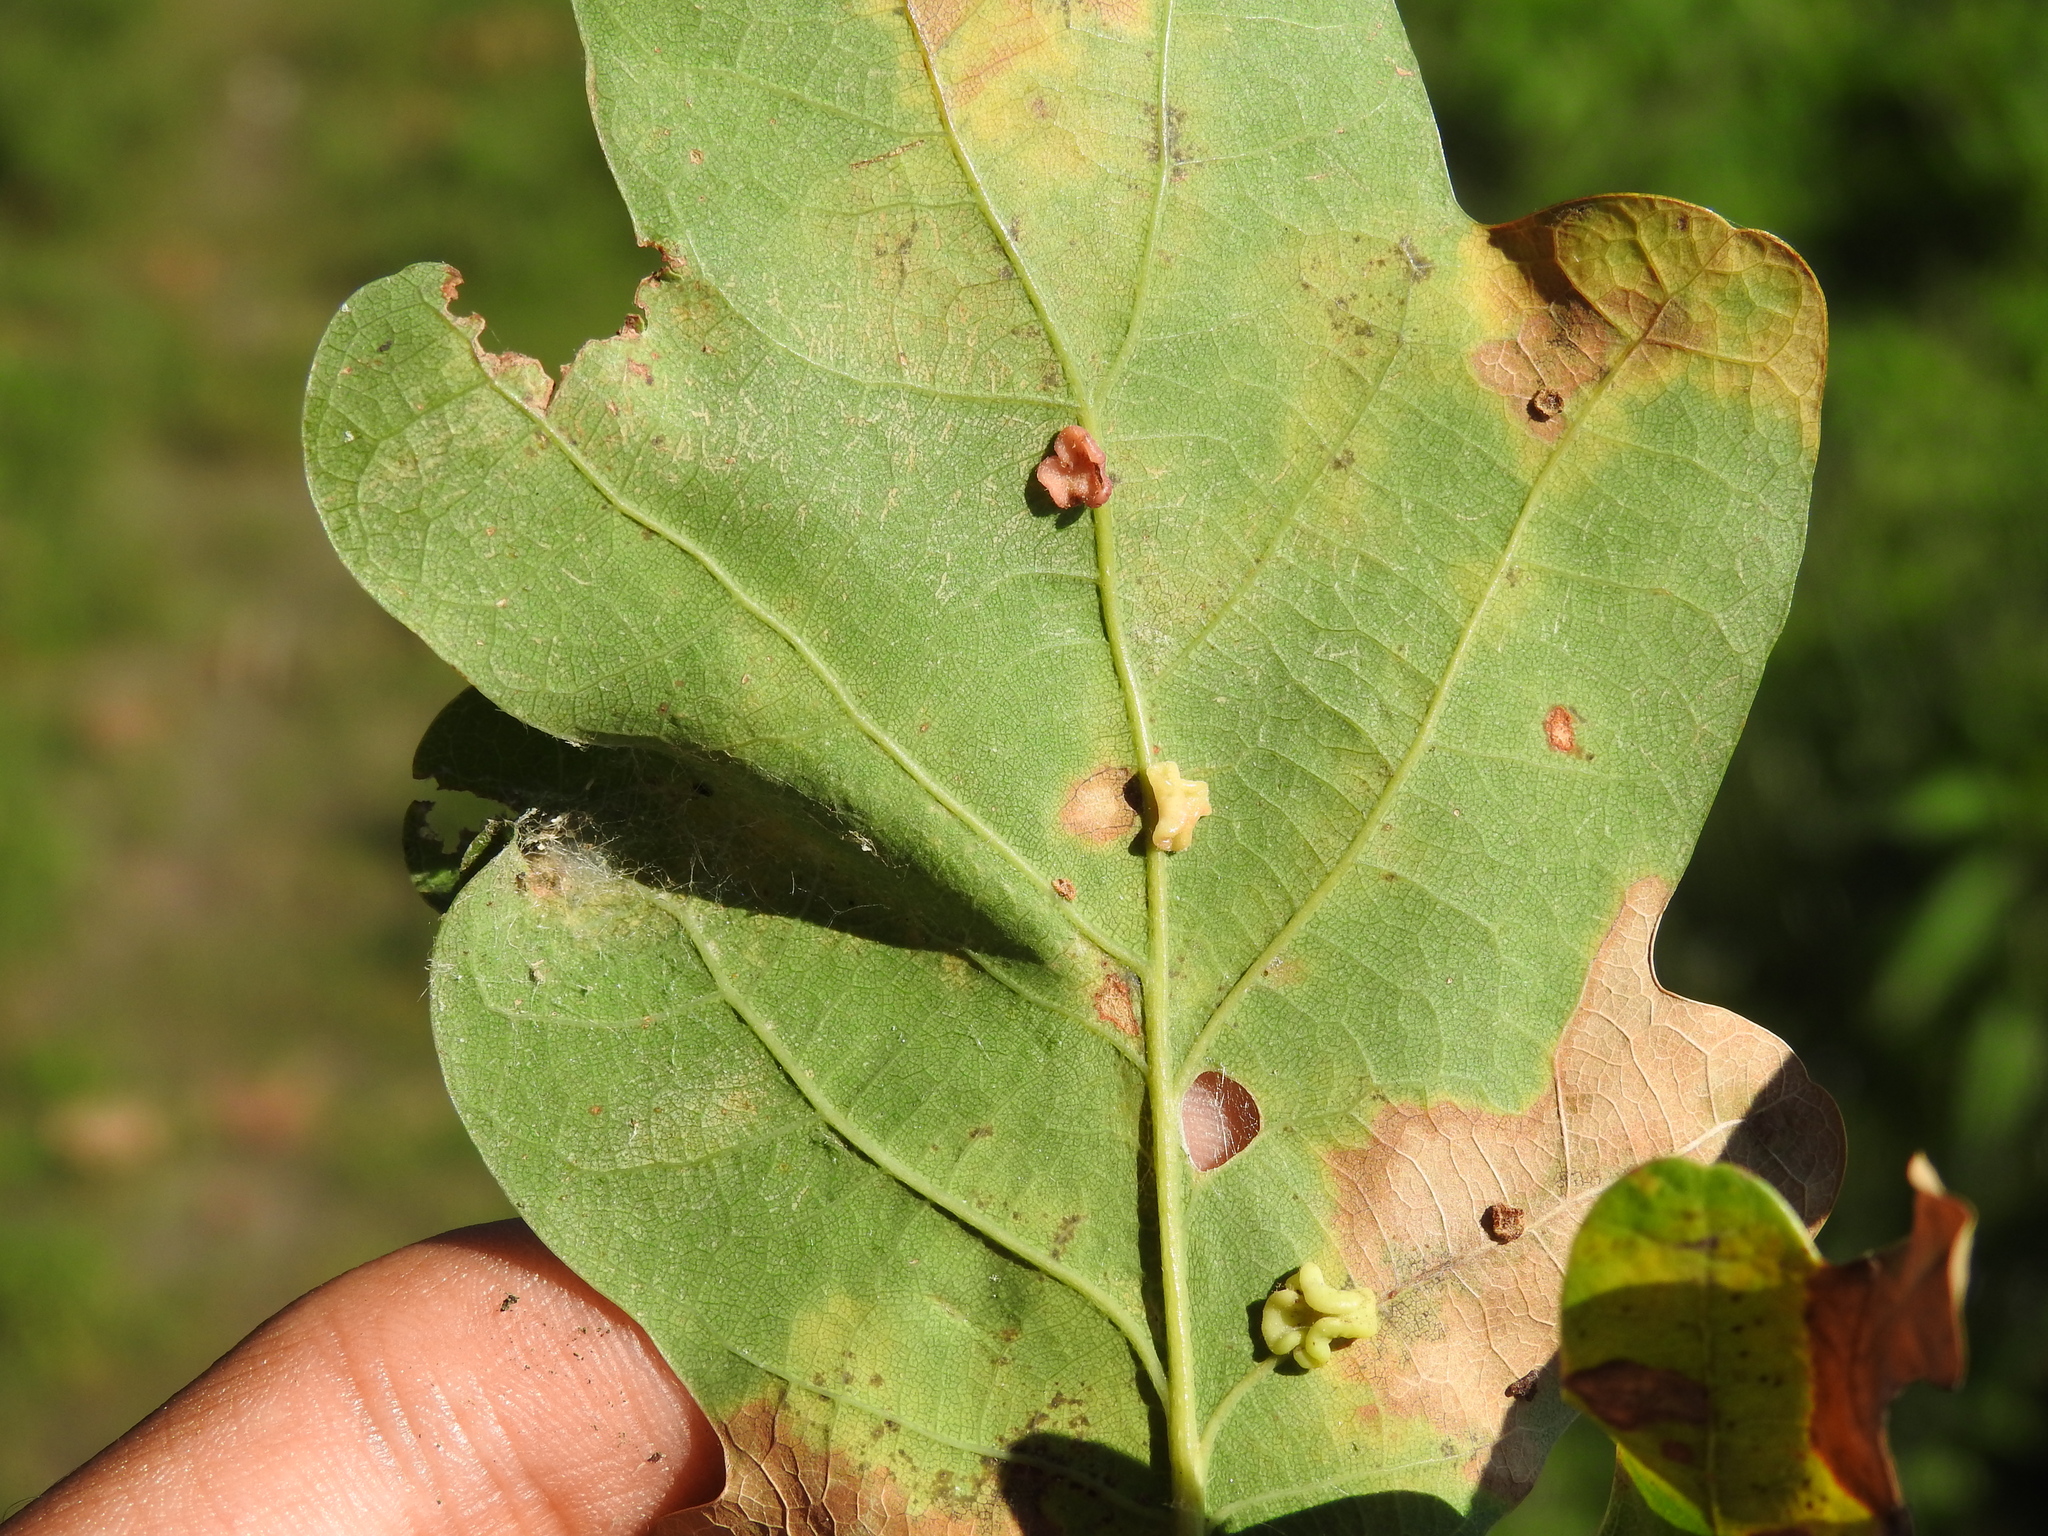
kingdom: Animalia
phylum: Arthropoda
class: Insecta
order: Hymenoptera
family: Cynipidae
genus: Neuroterus
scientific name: Neuroterus albipes
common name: Smooth spangle gall
